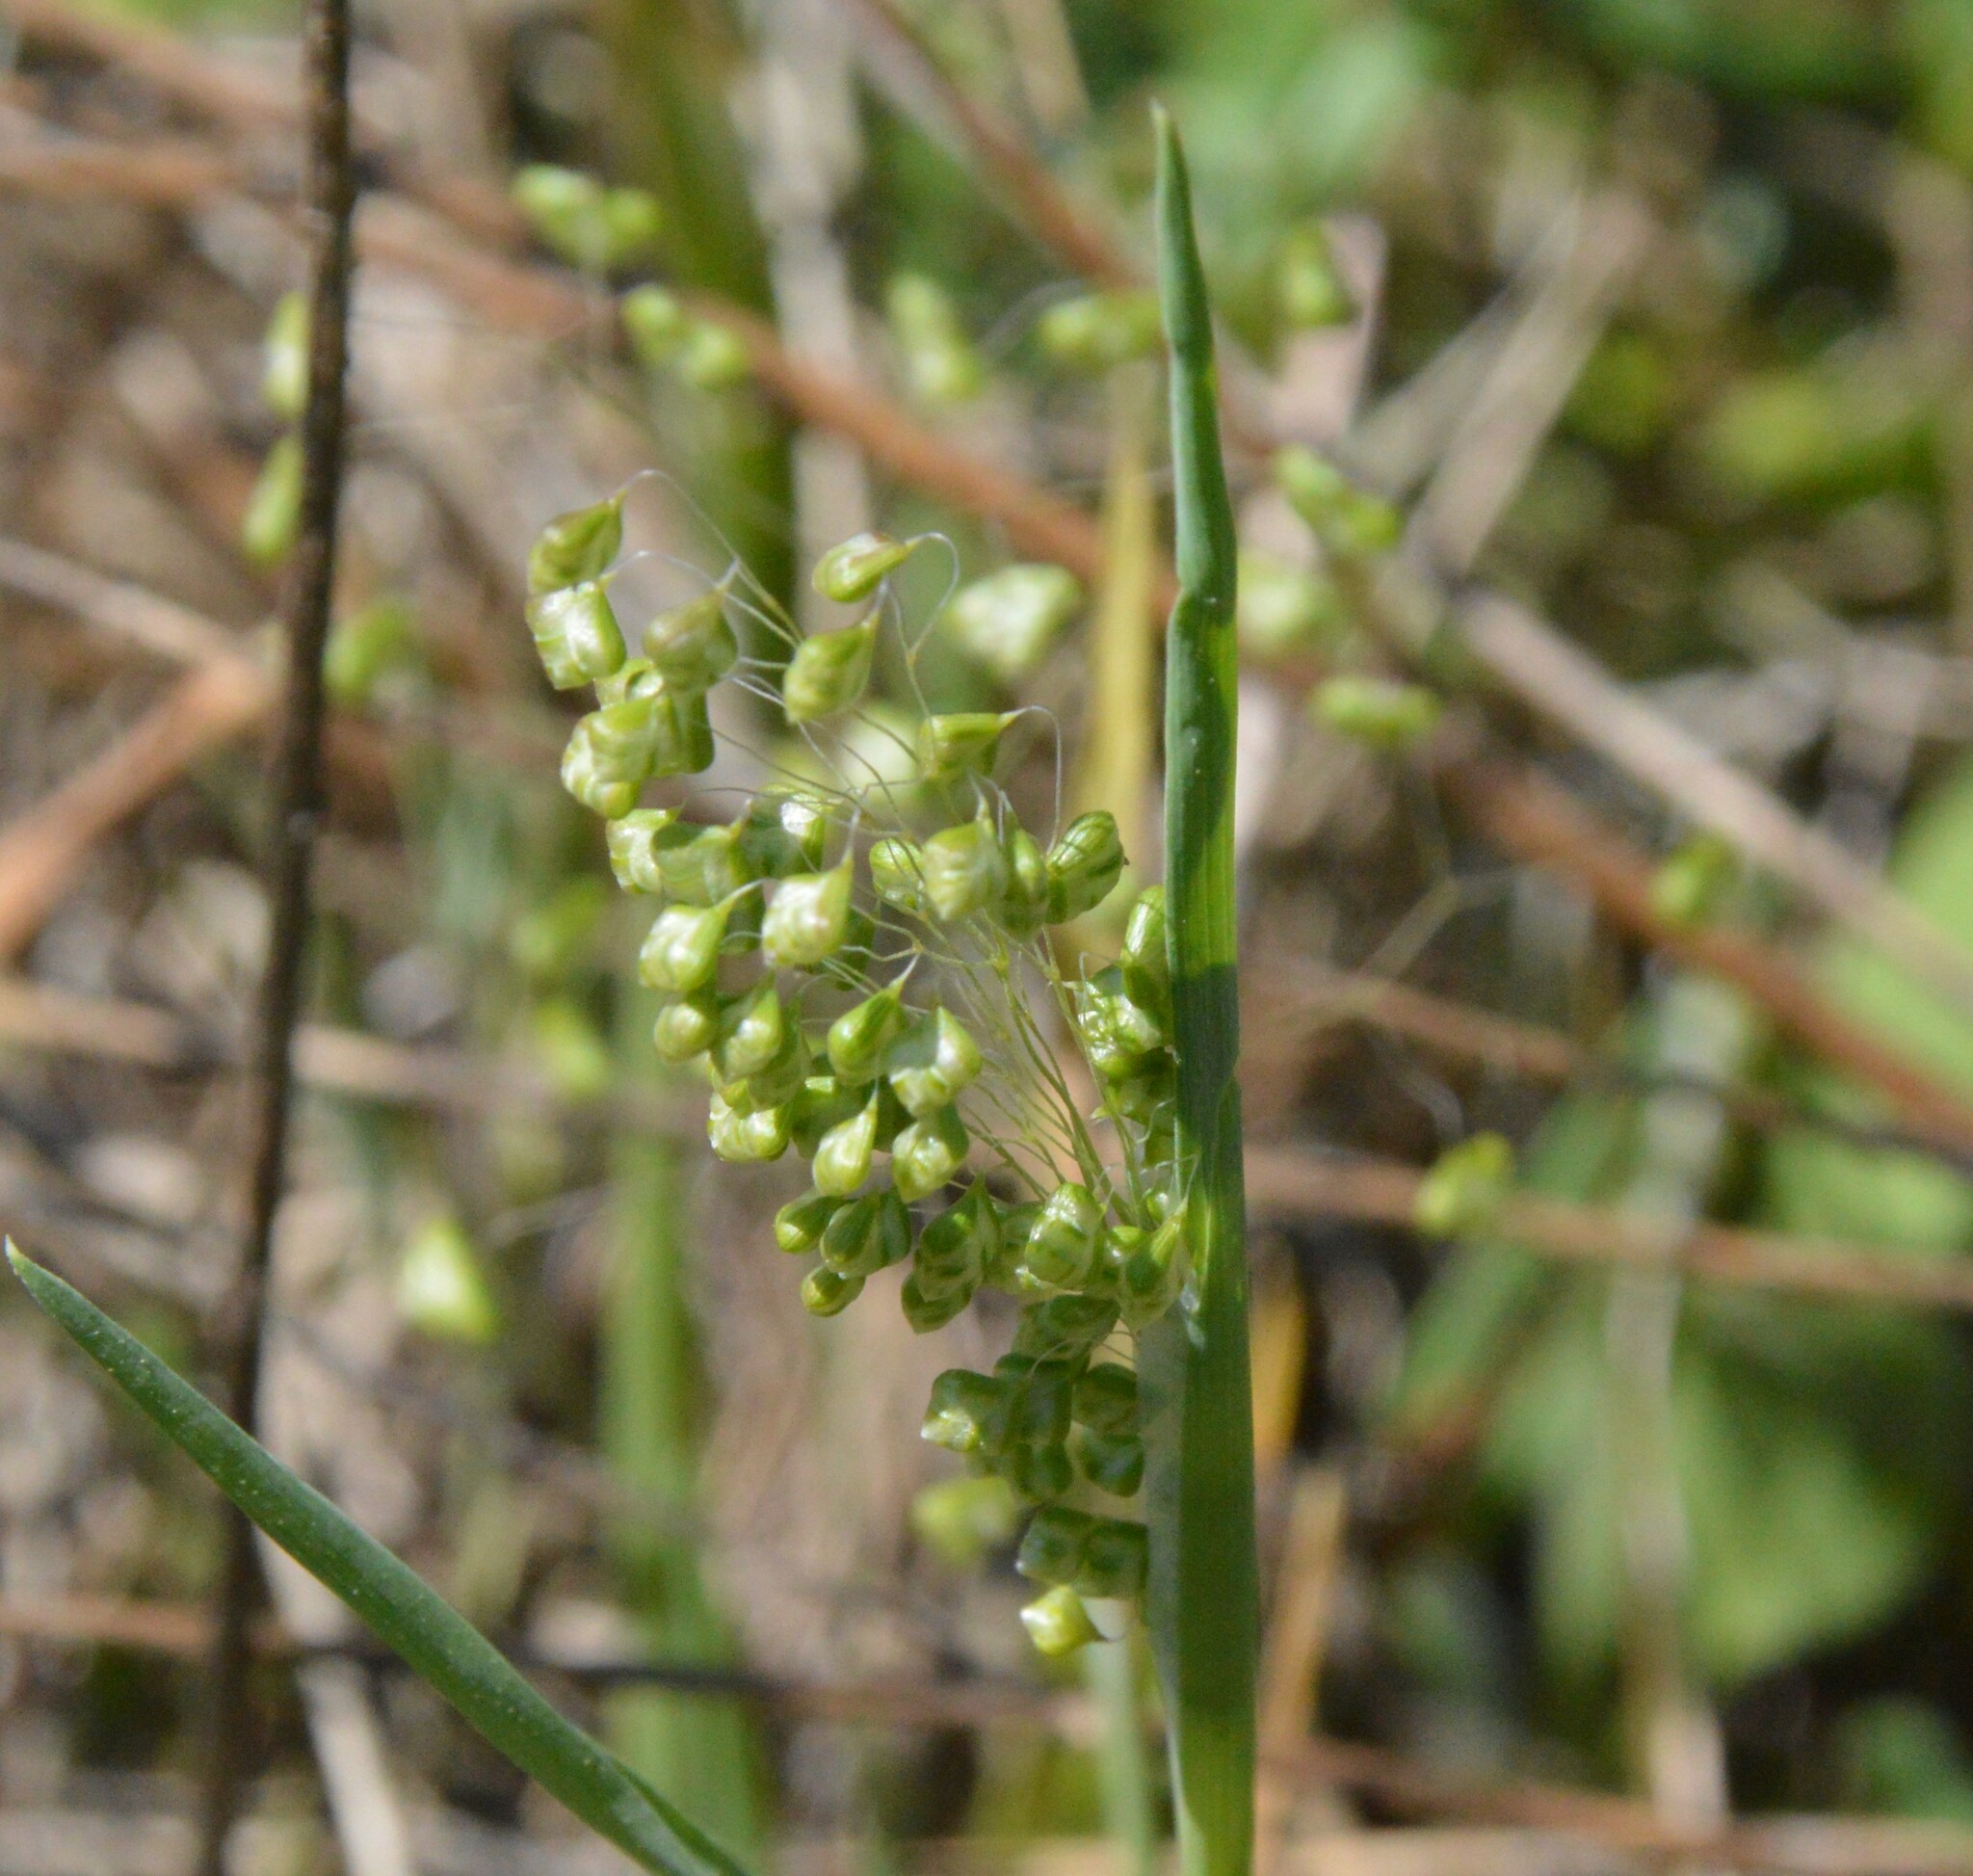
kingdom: Plantae
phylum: Tracheophyta
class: Liliopsida
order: Poales
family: Poaceae
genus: Briza
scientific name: Briza minor
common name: Lesser quaking-grass
